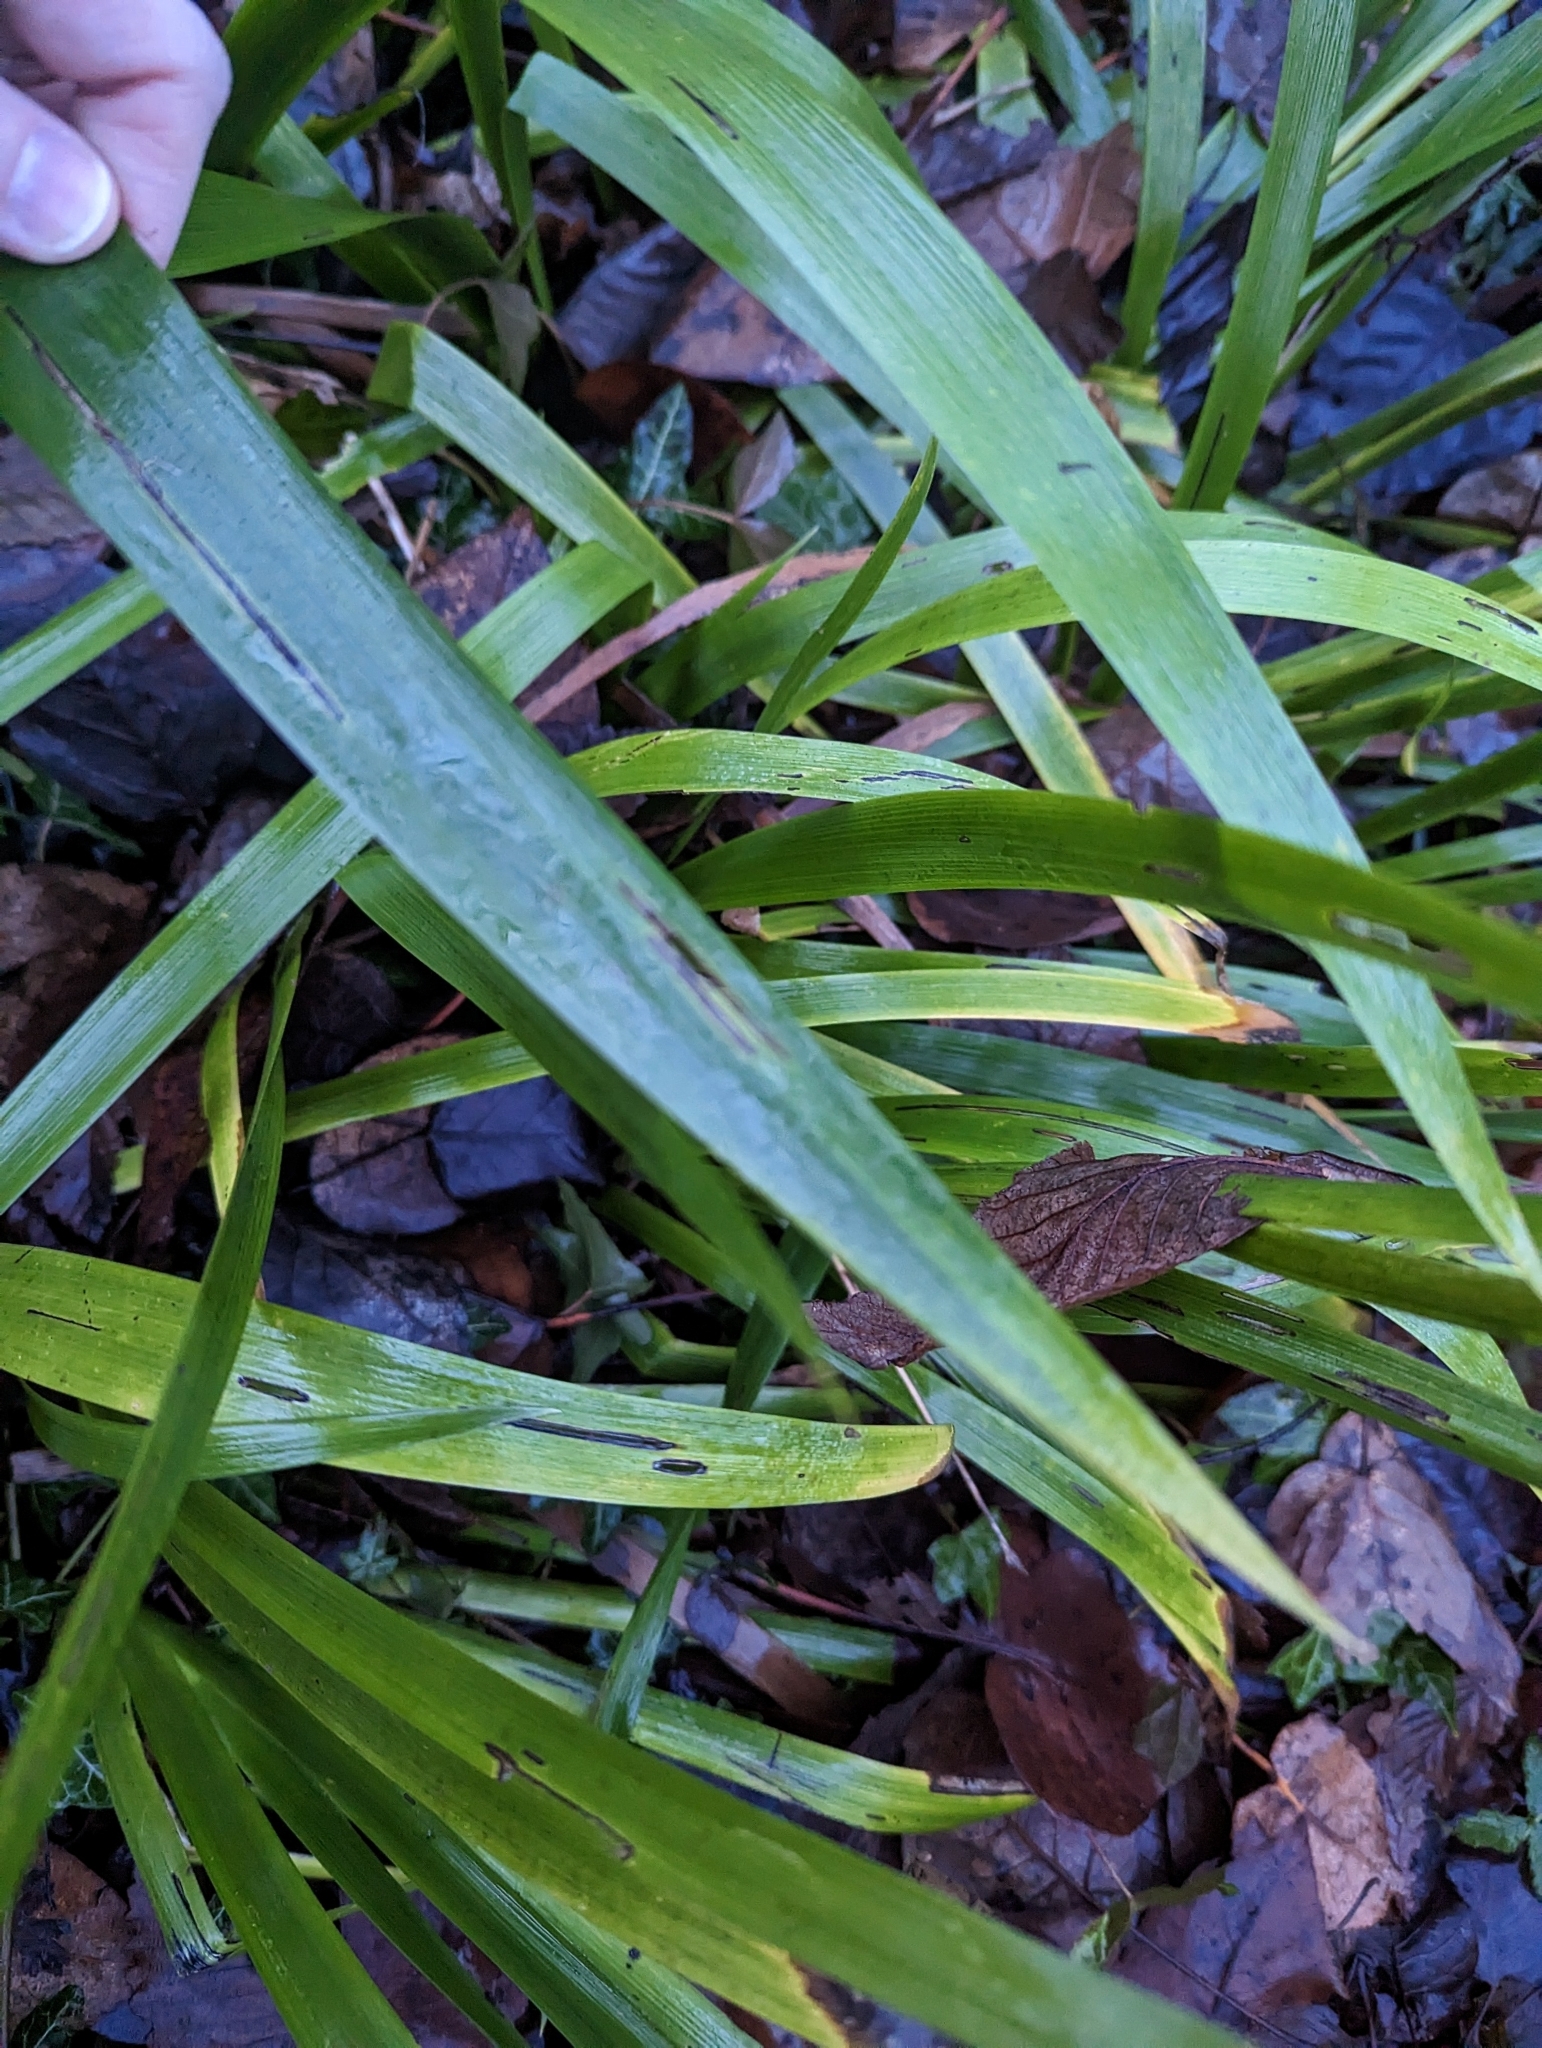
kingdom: Plantae
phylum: Tracheophyta
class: Liliopsida
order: Asparagales
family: Iridaceae
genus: Iris
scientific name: Iris foetidissima
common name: Stinking iris
